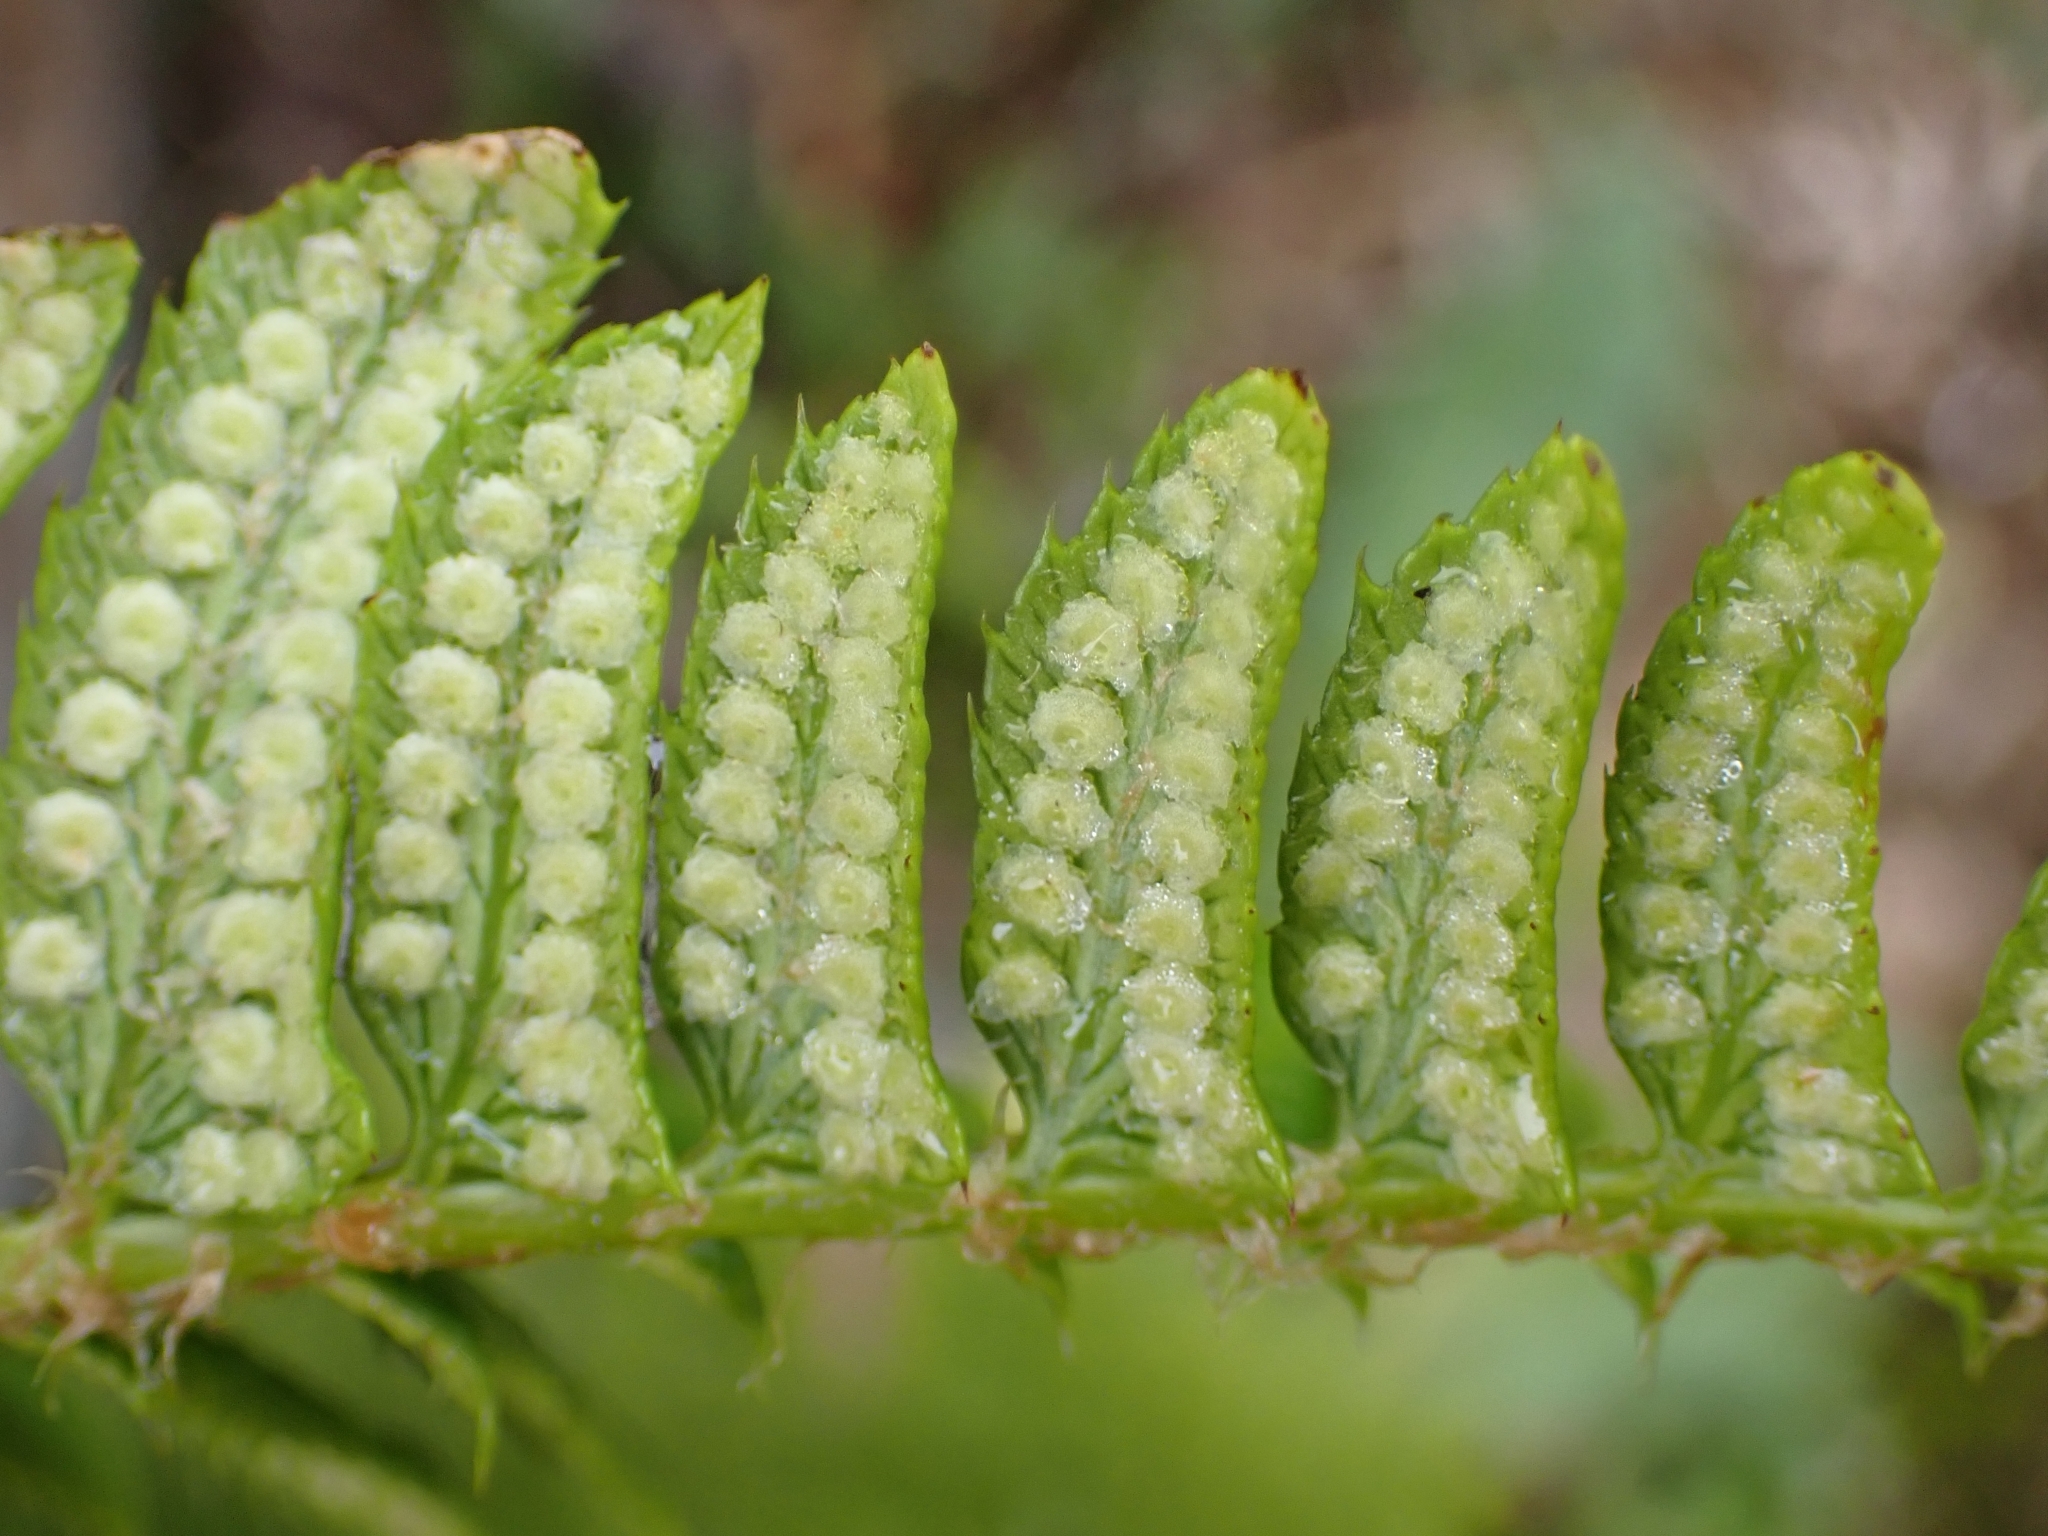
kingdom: Plantae
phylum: Tracheophyta
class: Polypodiopsida
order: Polypodiales
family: Dryopteridaceae
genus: Polystichum
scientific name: Polystichum lonchitis
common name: Holly fern
